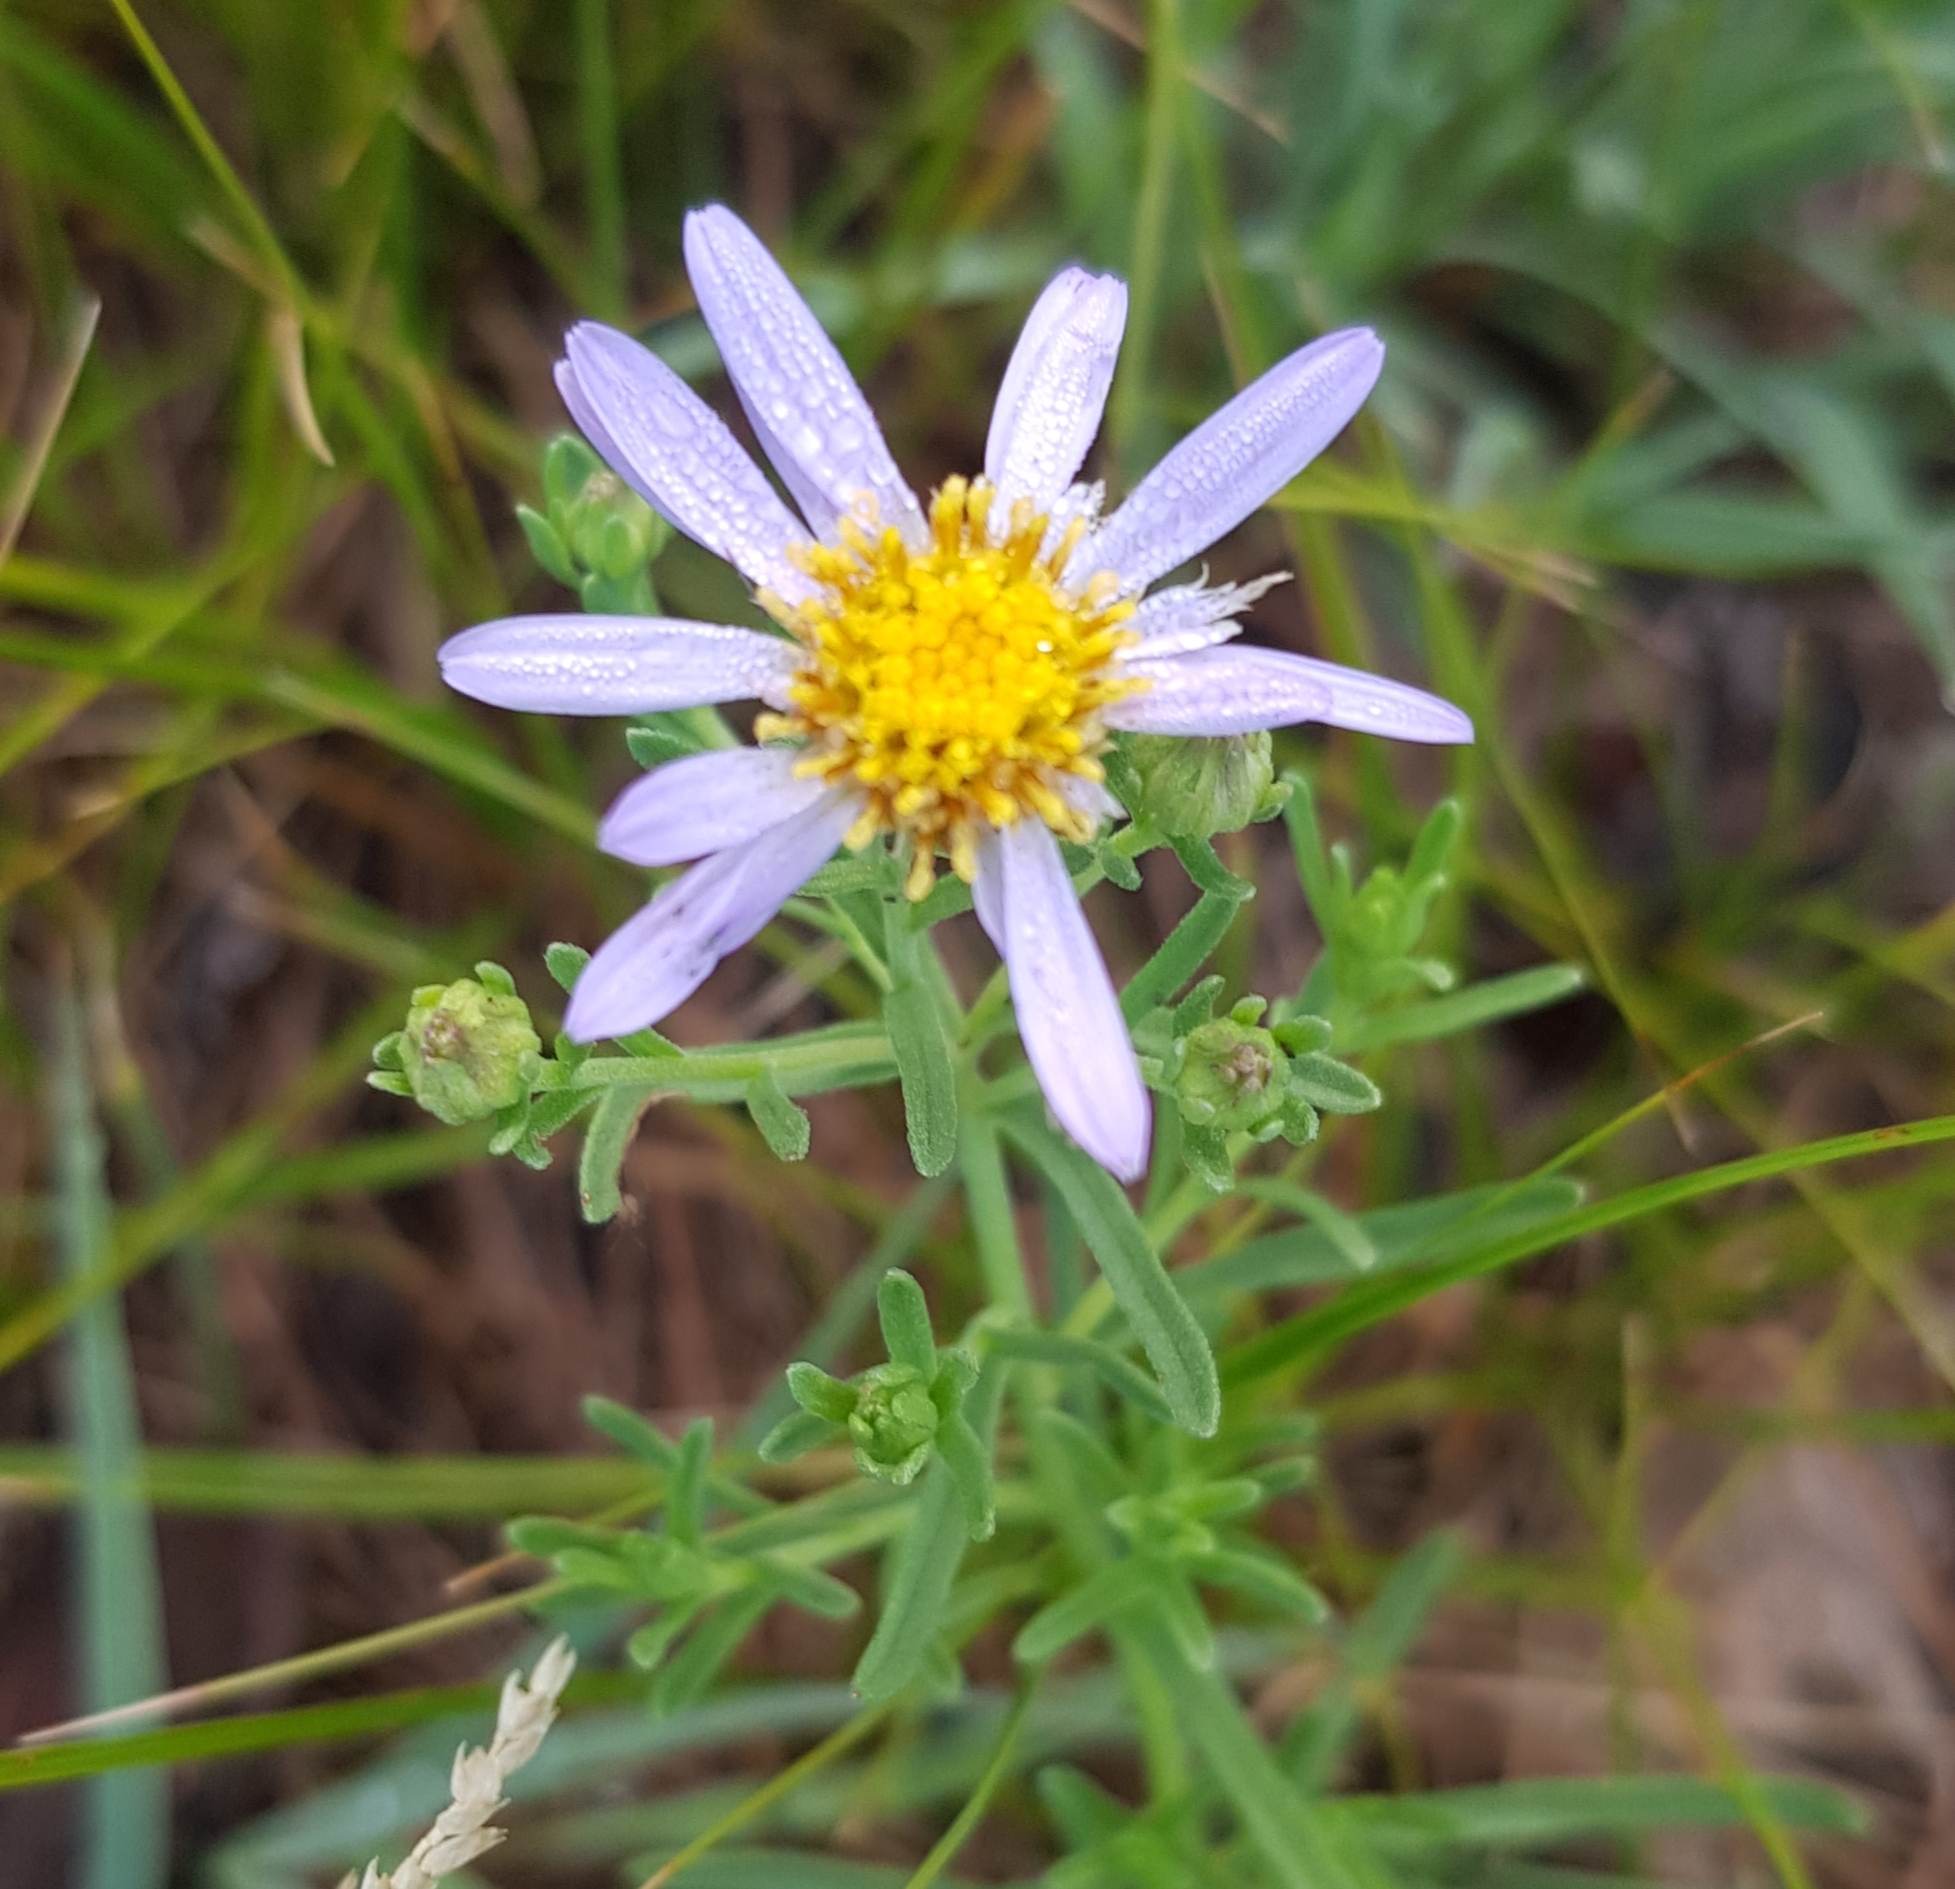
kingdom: Plantae
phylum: Tracheophyta
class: Magnoliopsida
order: Asterales
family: Asteraceae
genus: Heteropappus
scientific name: Heteropappus altaicus
